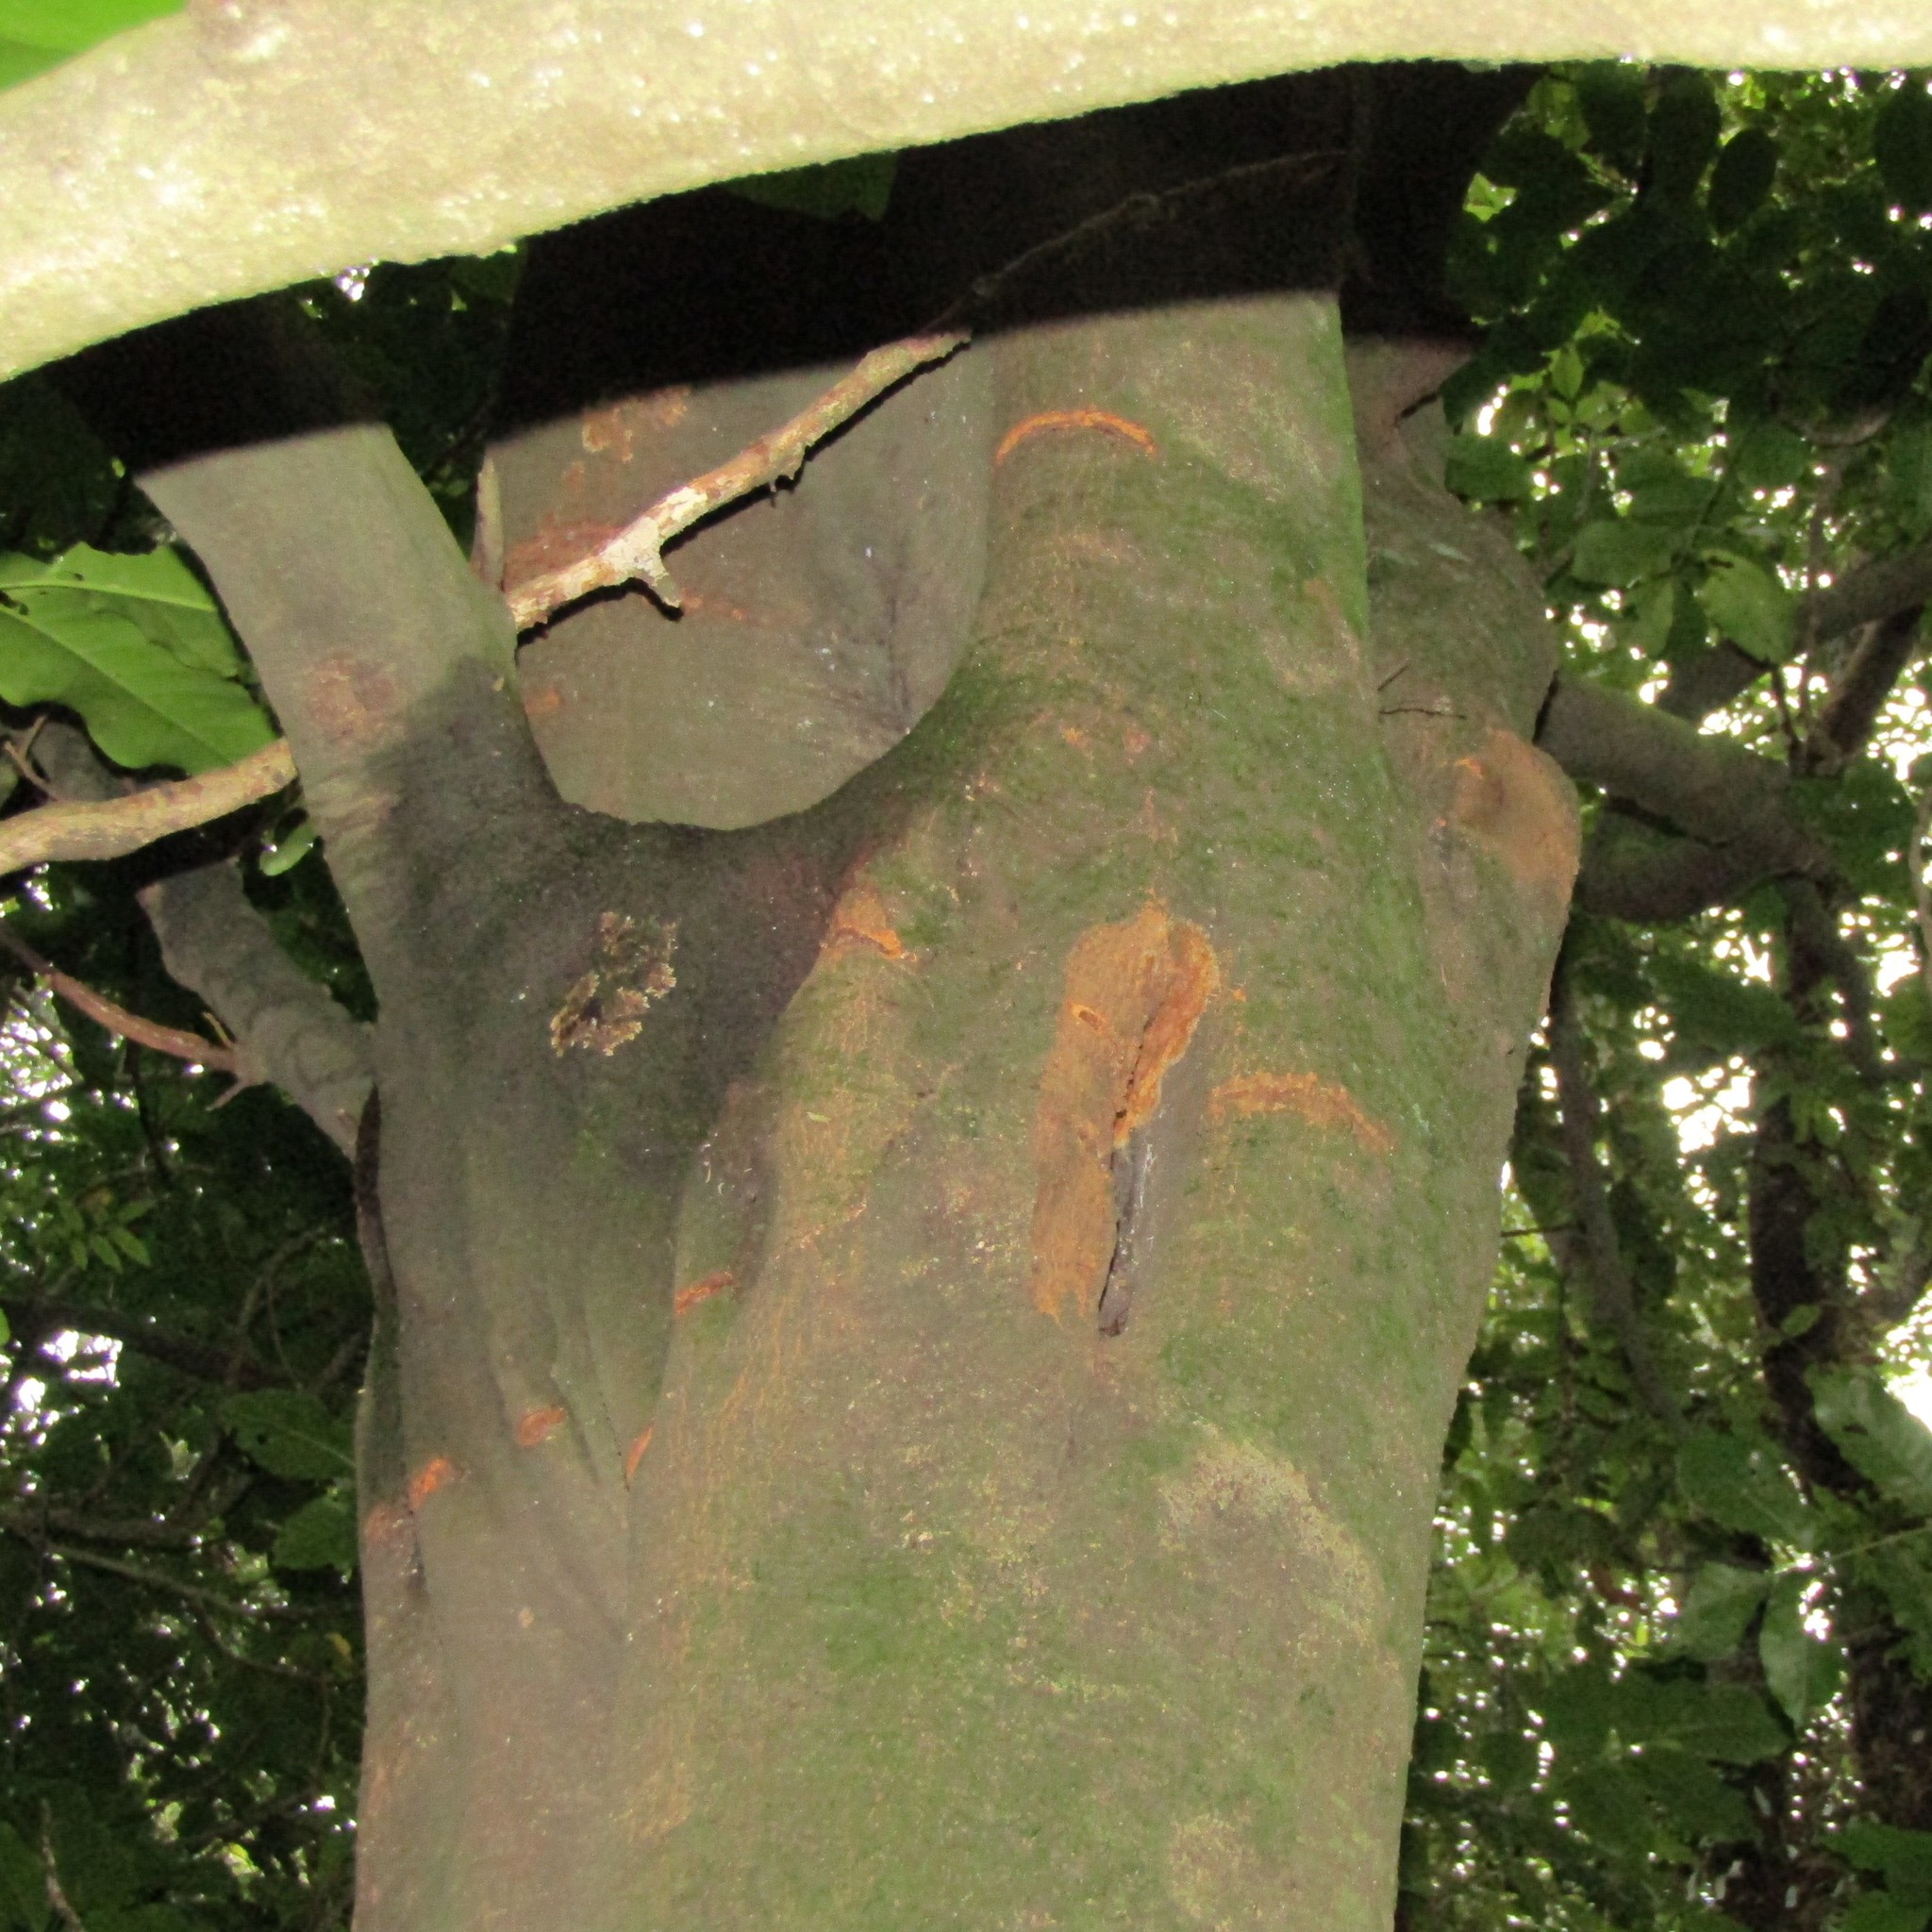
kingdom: Plantae
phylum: Tracheophyta
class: Magnoliopsida
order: Sapindales
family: Sapindaceae
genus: Alectryon
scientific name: Alectryon excelsus
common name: Three kings titoki
